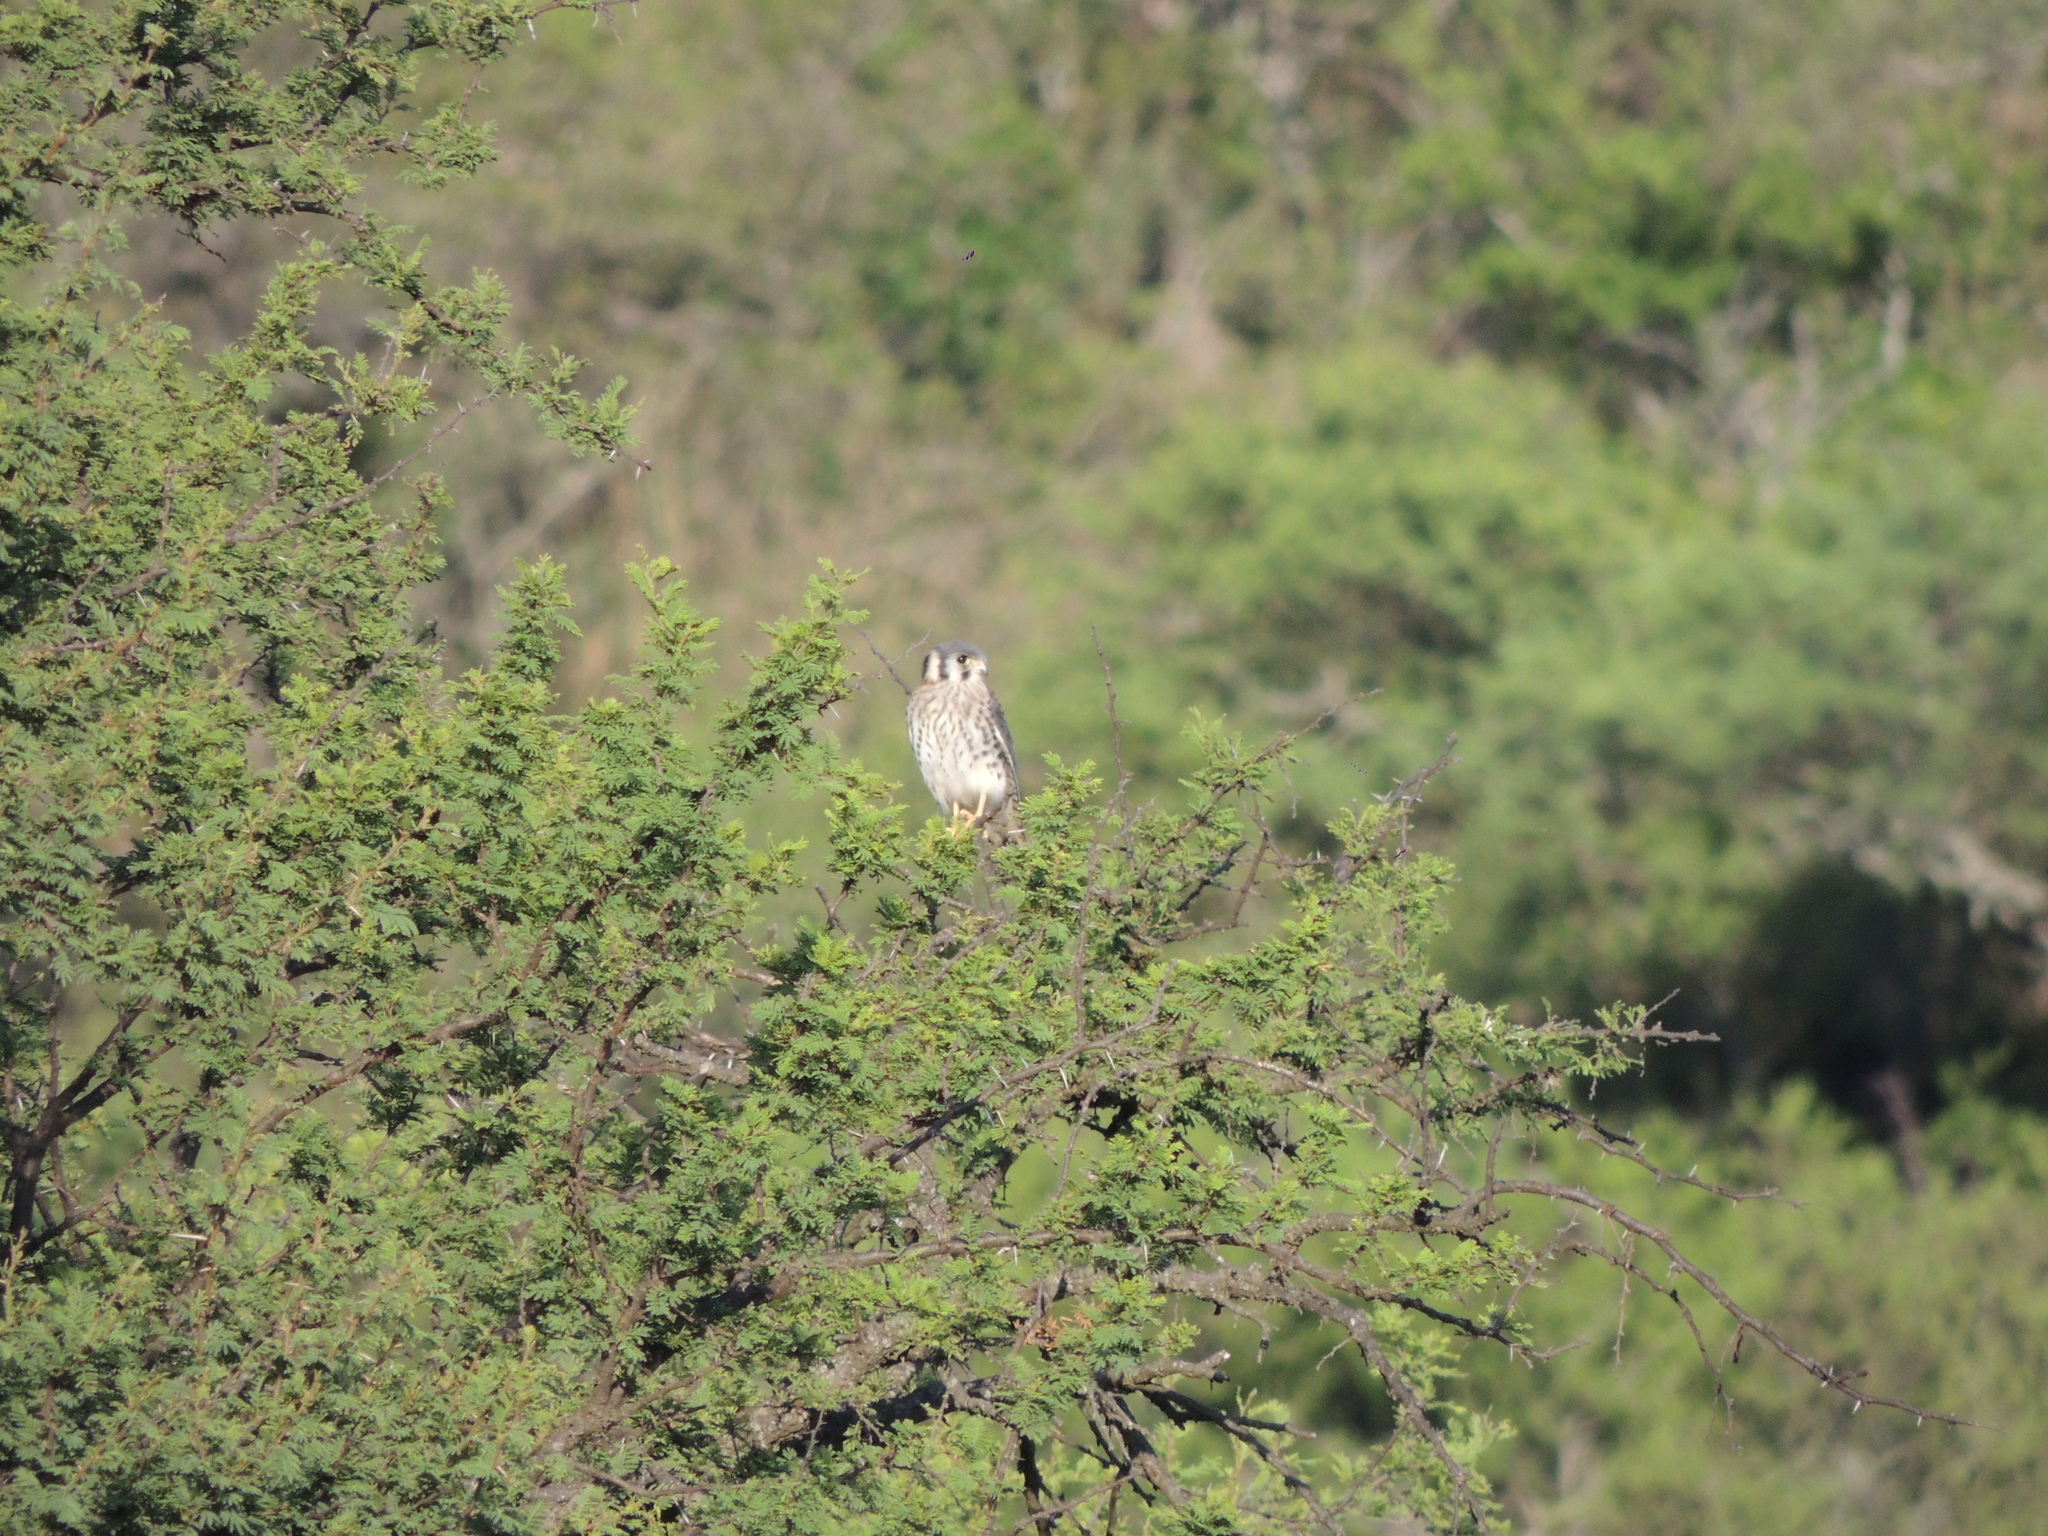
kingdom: Animalia
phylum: Chordata
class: Aves
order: Falconiformes
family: Falconidae
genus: Falco
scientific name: Falco sparverius
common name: American kestrel
